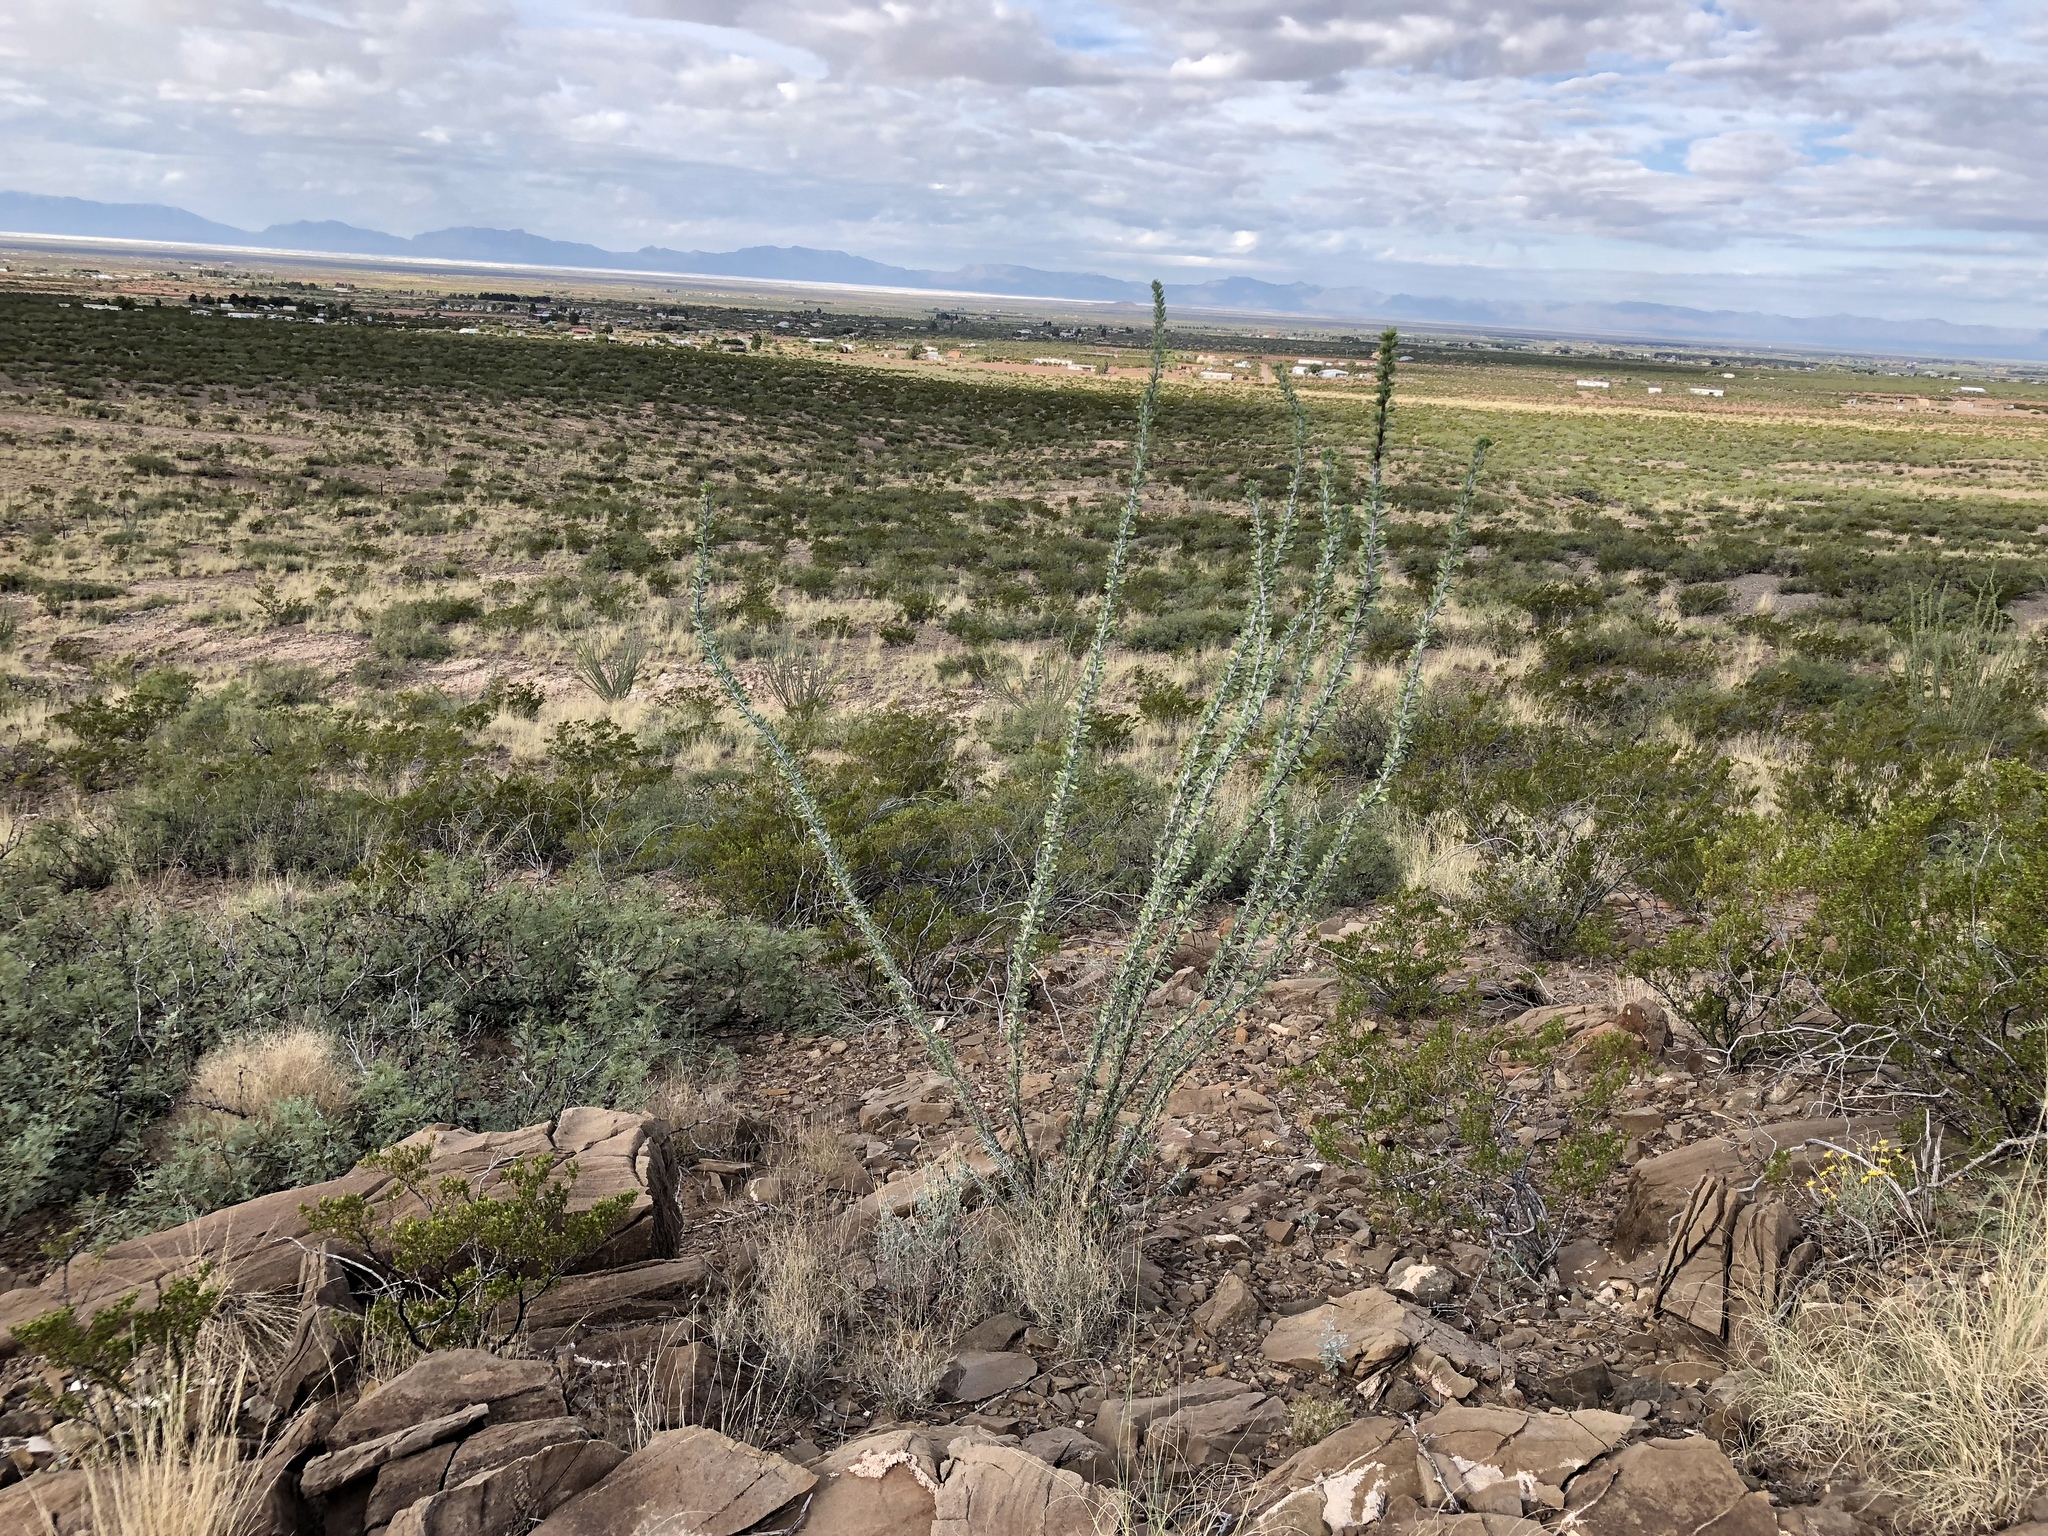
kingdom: Plantae
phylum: Tracheophyta
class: Magnoliopsida
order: Ericales
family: Fouquieriaceae
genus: Fouquieria
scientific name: Fouquieria splendens
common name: Vine-cactus
